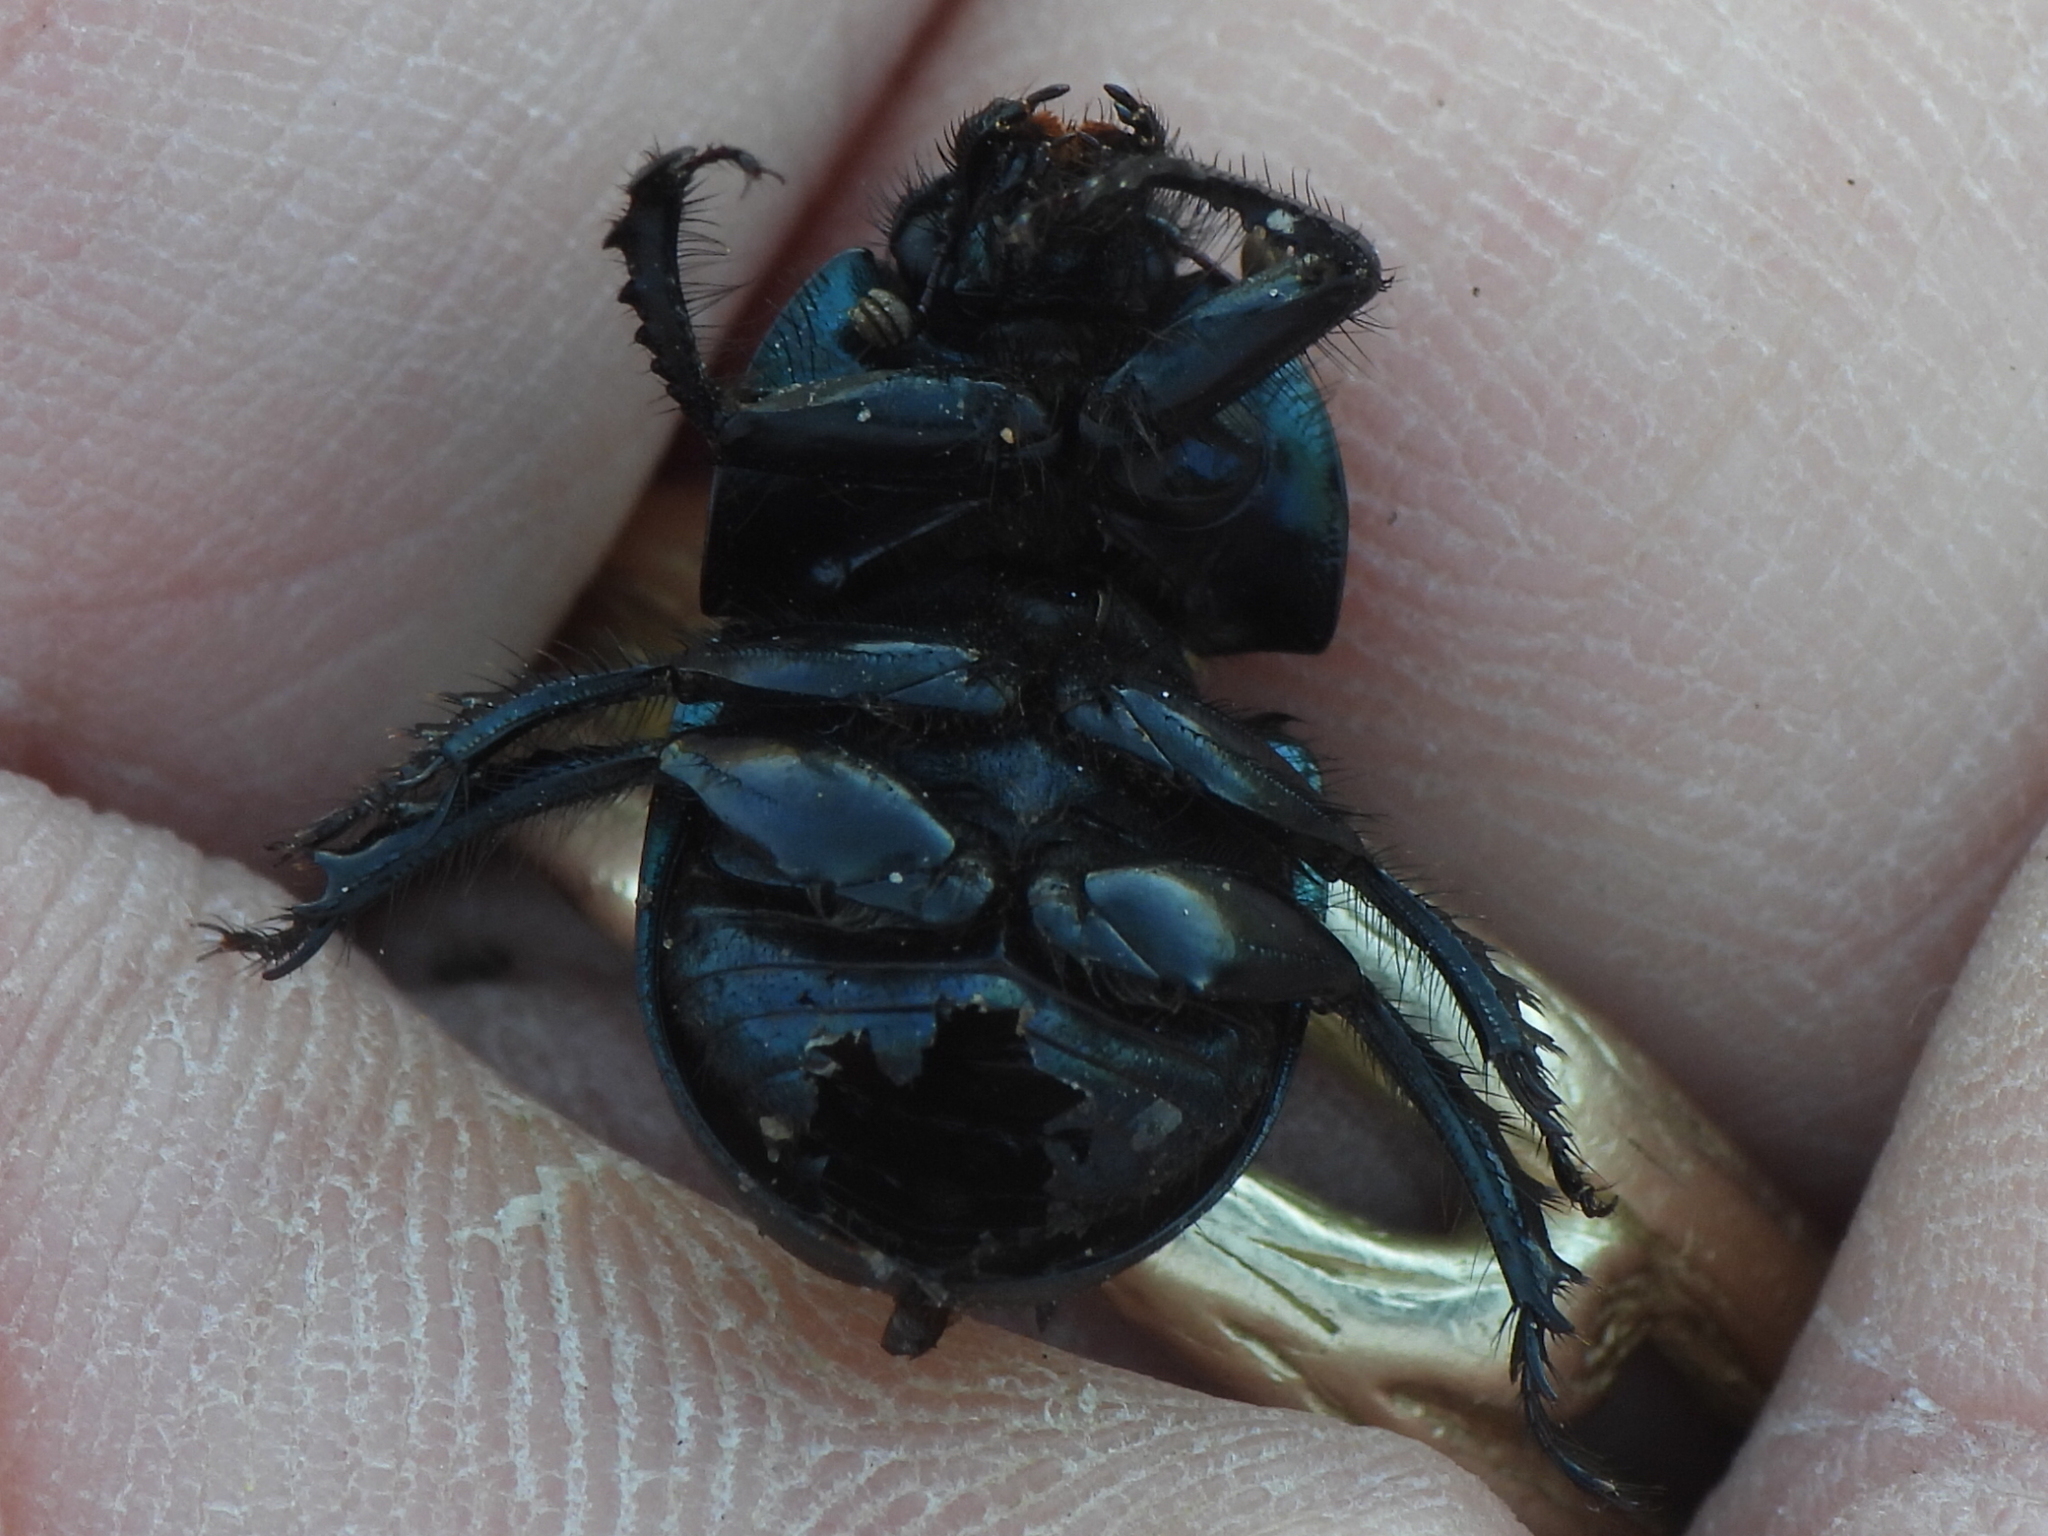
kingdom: Animalia
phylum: Arthropoda
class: Insecta
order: Coleoptera
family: Geotrupidae
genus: Cnemotrupes
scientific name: Cnemotrupes semiopacus
